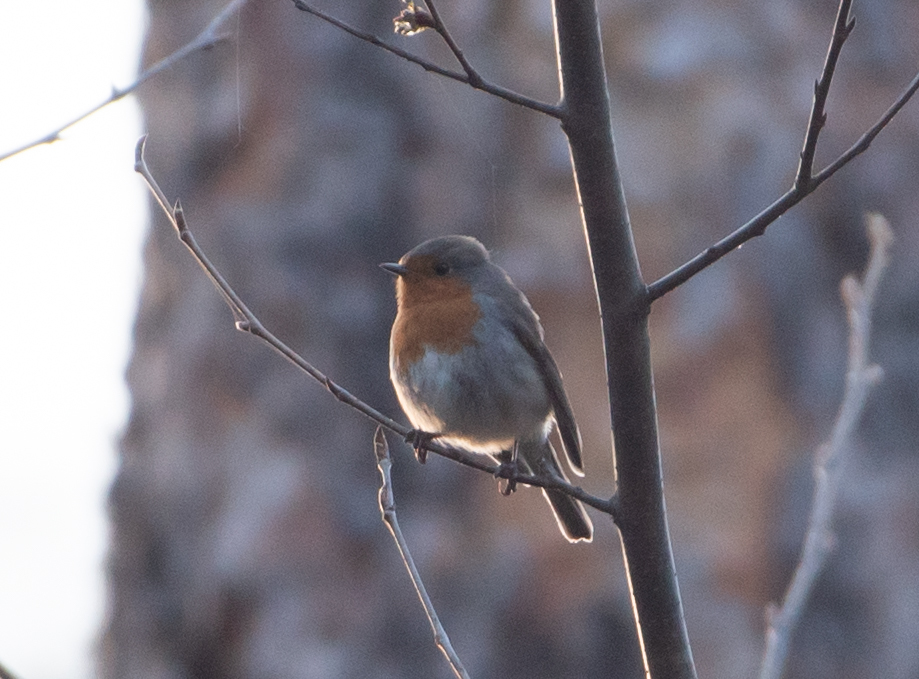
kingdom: Animalia
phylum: Chordata
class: Aves
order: Passeriformes
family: Muscicapidae
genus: Erithacus
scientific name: Erithacus rubecula
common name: European robin
